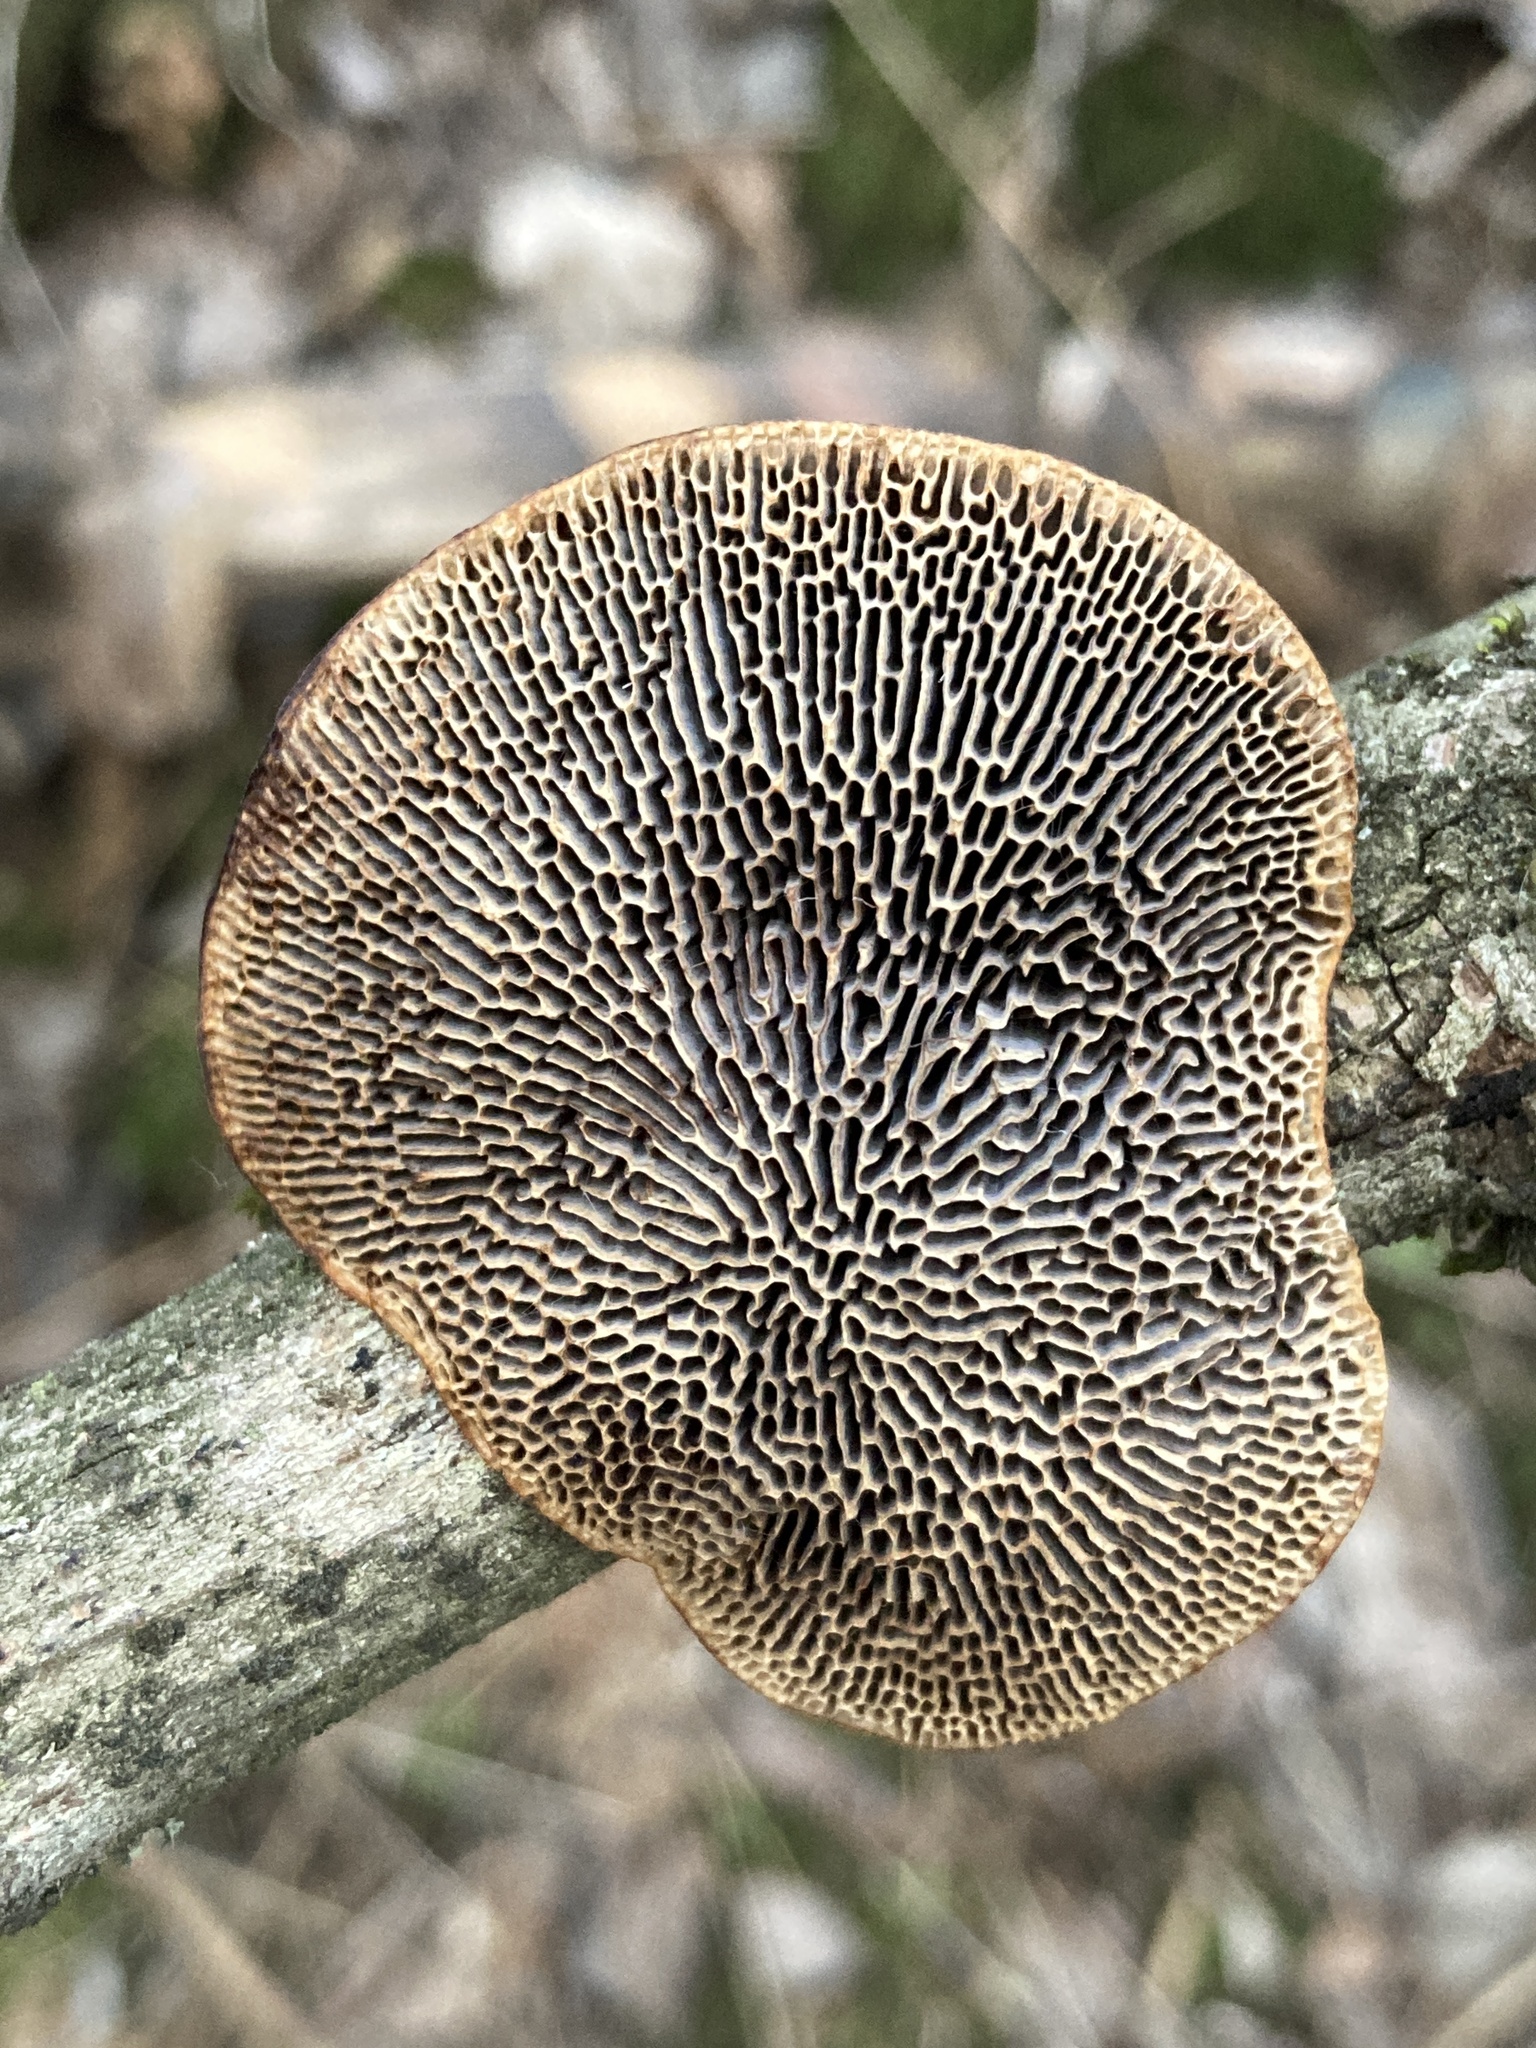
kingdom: Fungi
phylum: Basidiomycota
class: Agaricomycetes
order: Polyporales
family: Polyporaceae
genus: Daedaleopsis
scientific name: Daedaleopsis confragosa
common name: Blushing bracket
